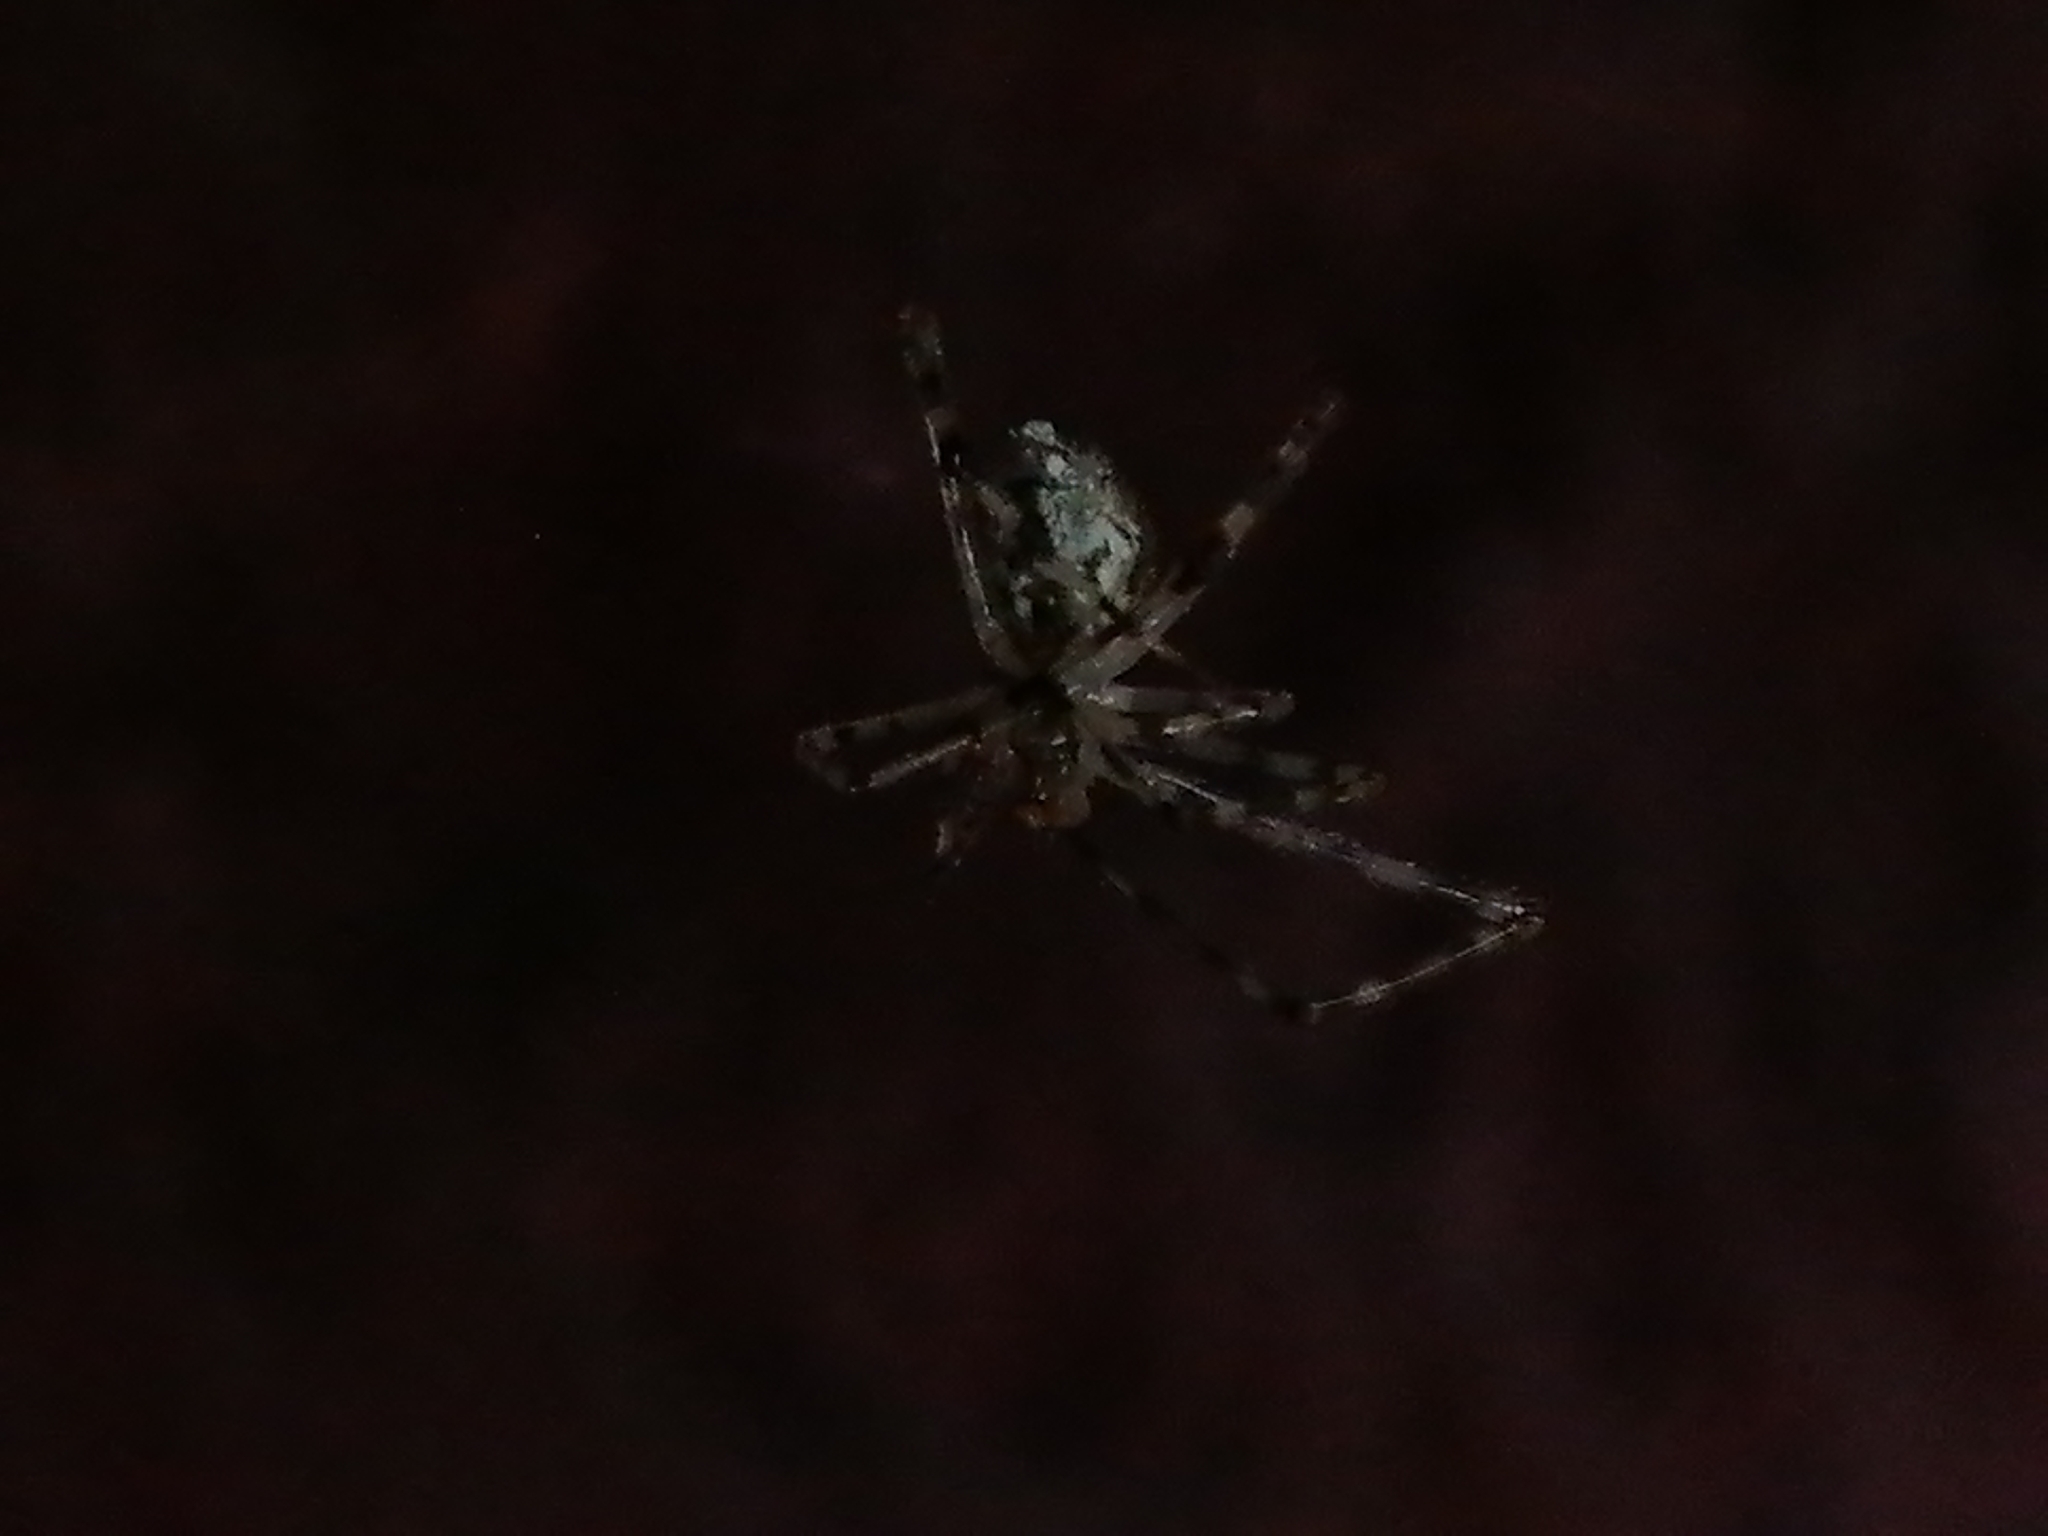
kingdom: Animalia
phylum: Arthropoda
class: Arachnida
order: Araneae
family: Theridiidae
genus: Cryptachaea
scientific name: Cryptachaea gigantipes
